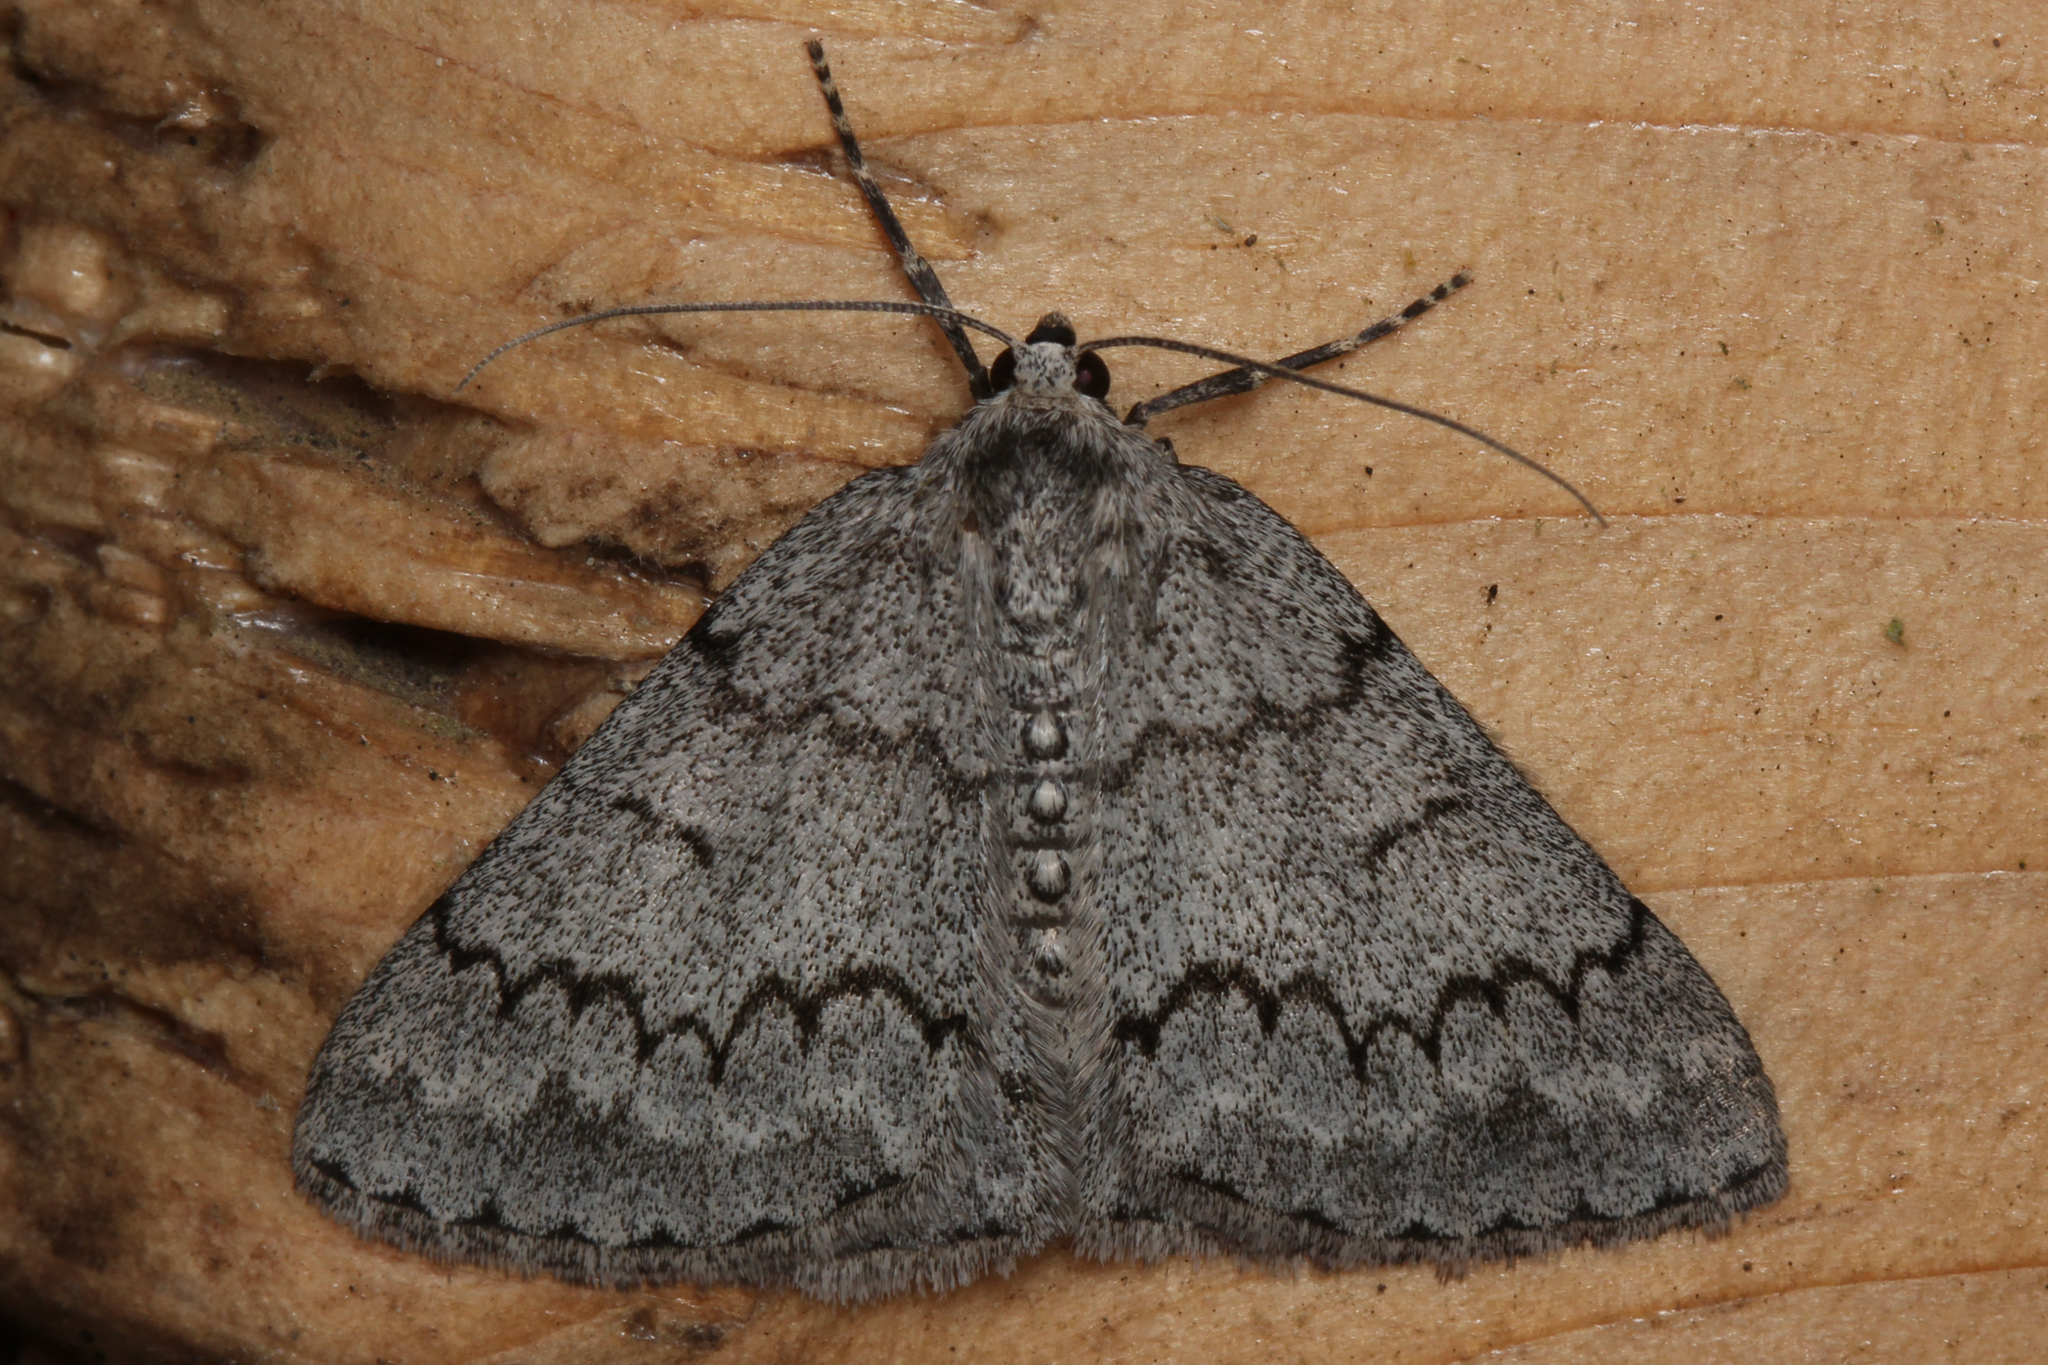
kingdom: Animalia
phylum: Arthropoda
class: Insecta
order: Lepidoptera
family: Geometridae
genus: Pseudoterpna
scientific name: Pseudoterpna coronillaria
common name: Jersey emerald
